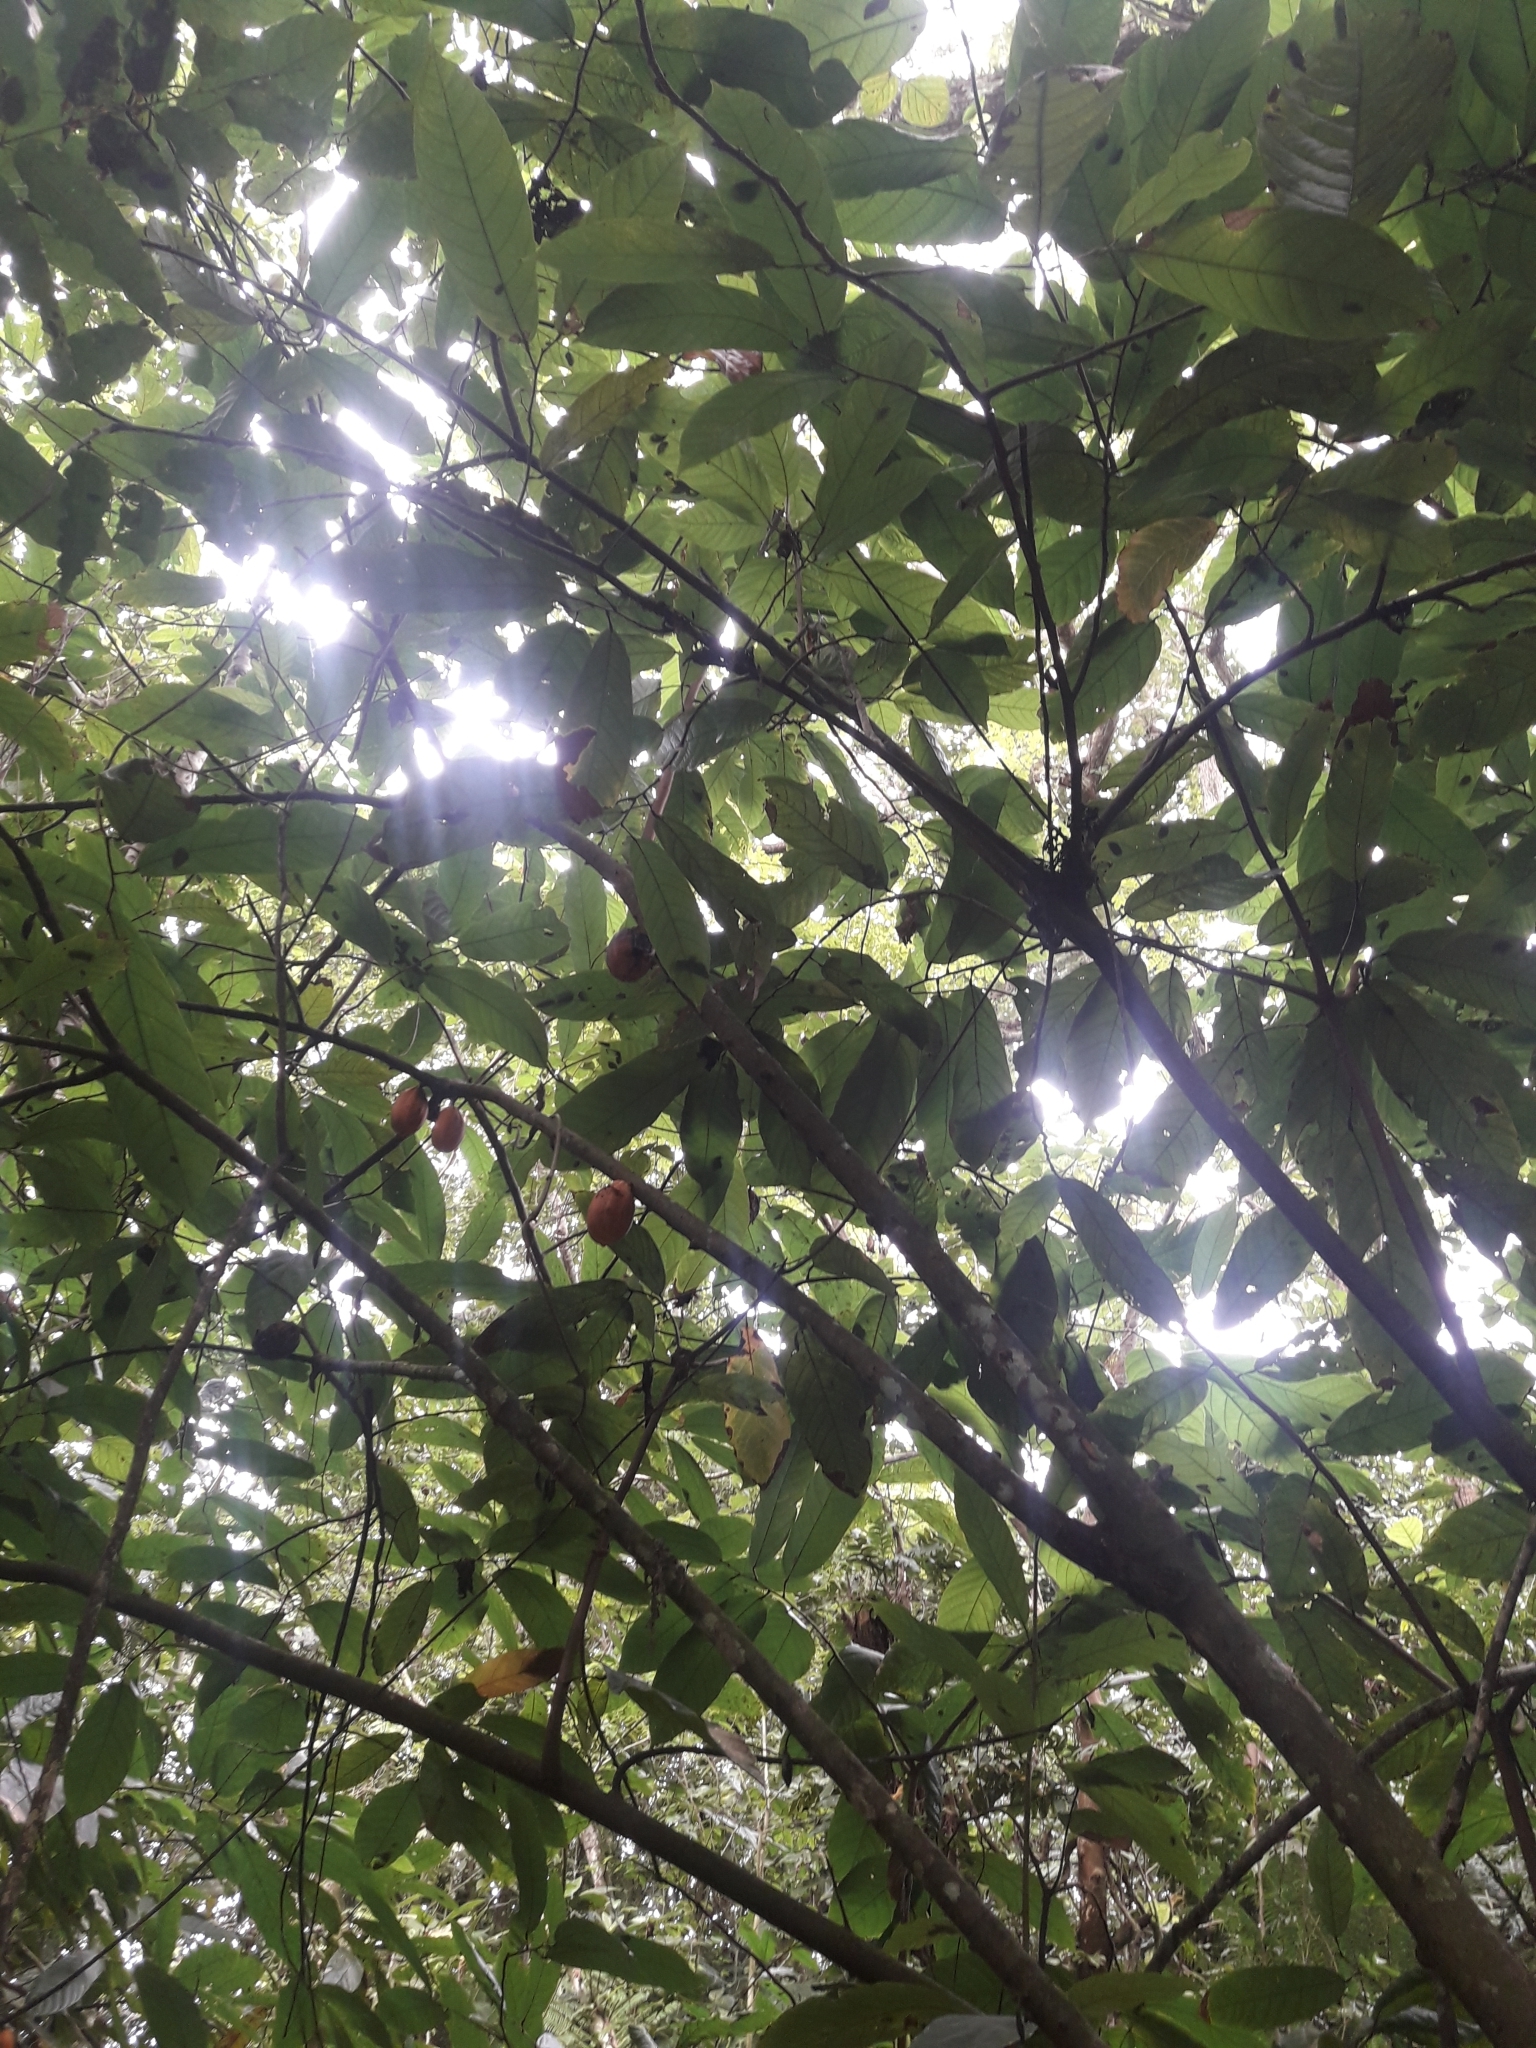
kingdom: Plantae
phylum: Tracheophyta
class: Magnoliopsida
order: Malvales
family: Malvaceae
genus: Theobroma
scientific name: Theobroma cacao
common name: Cocoa
